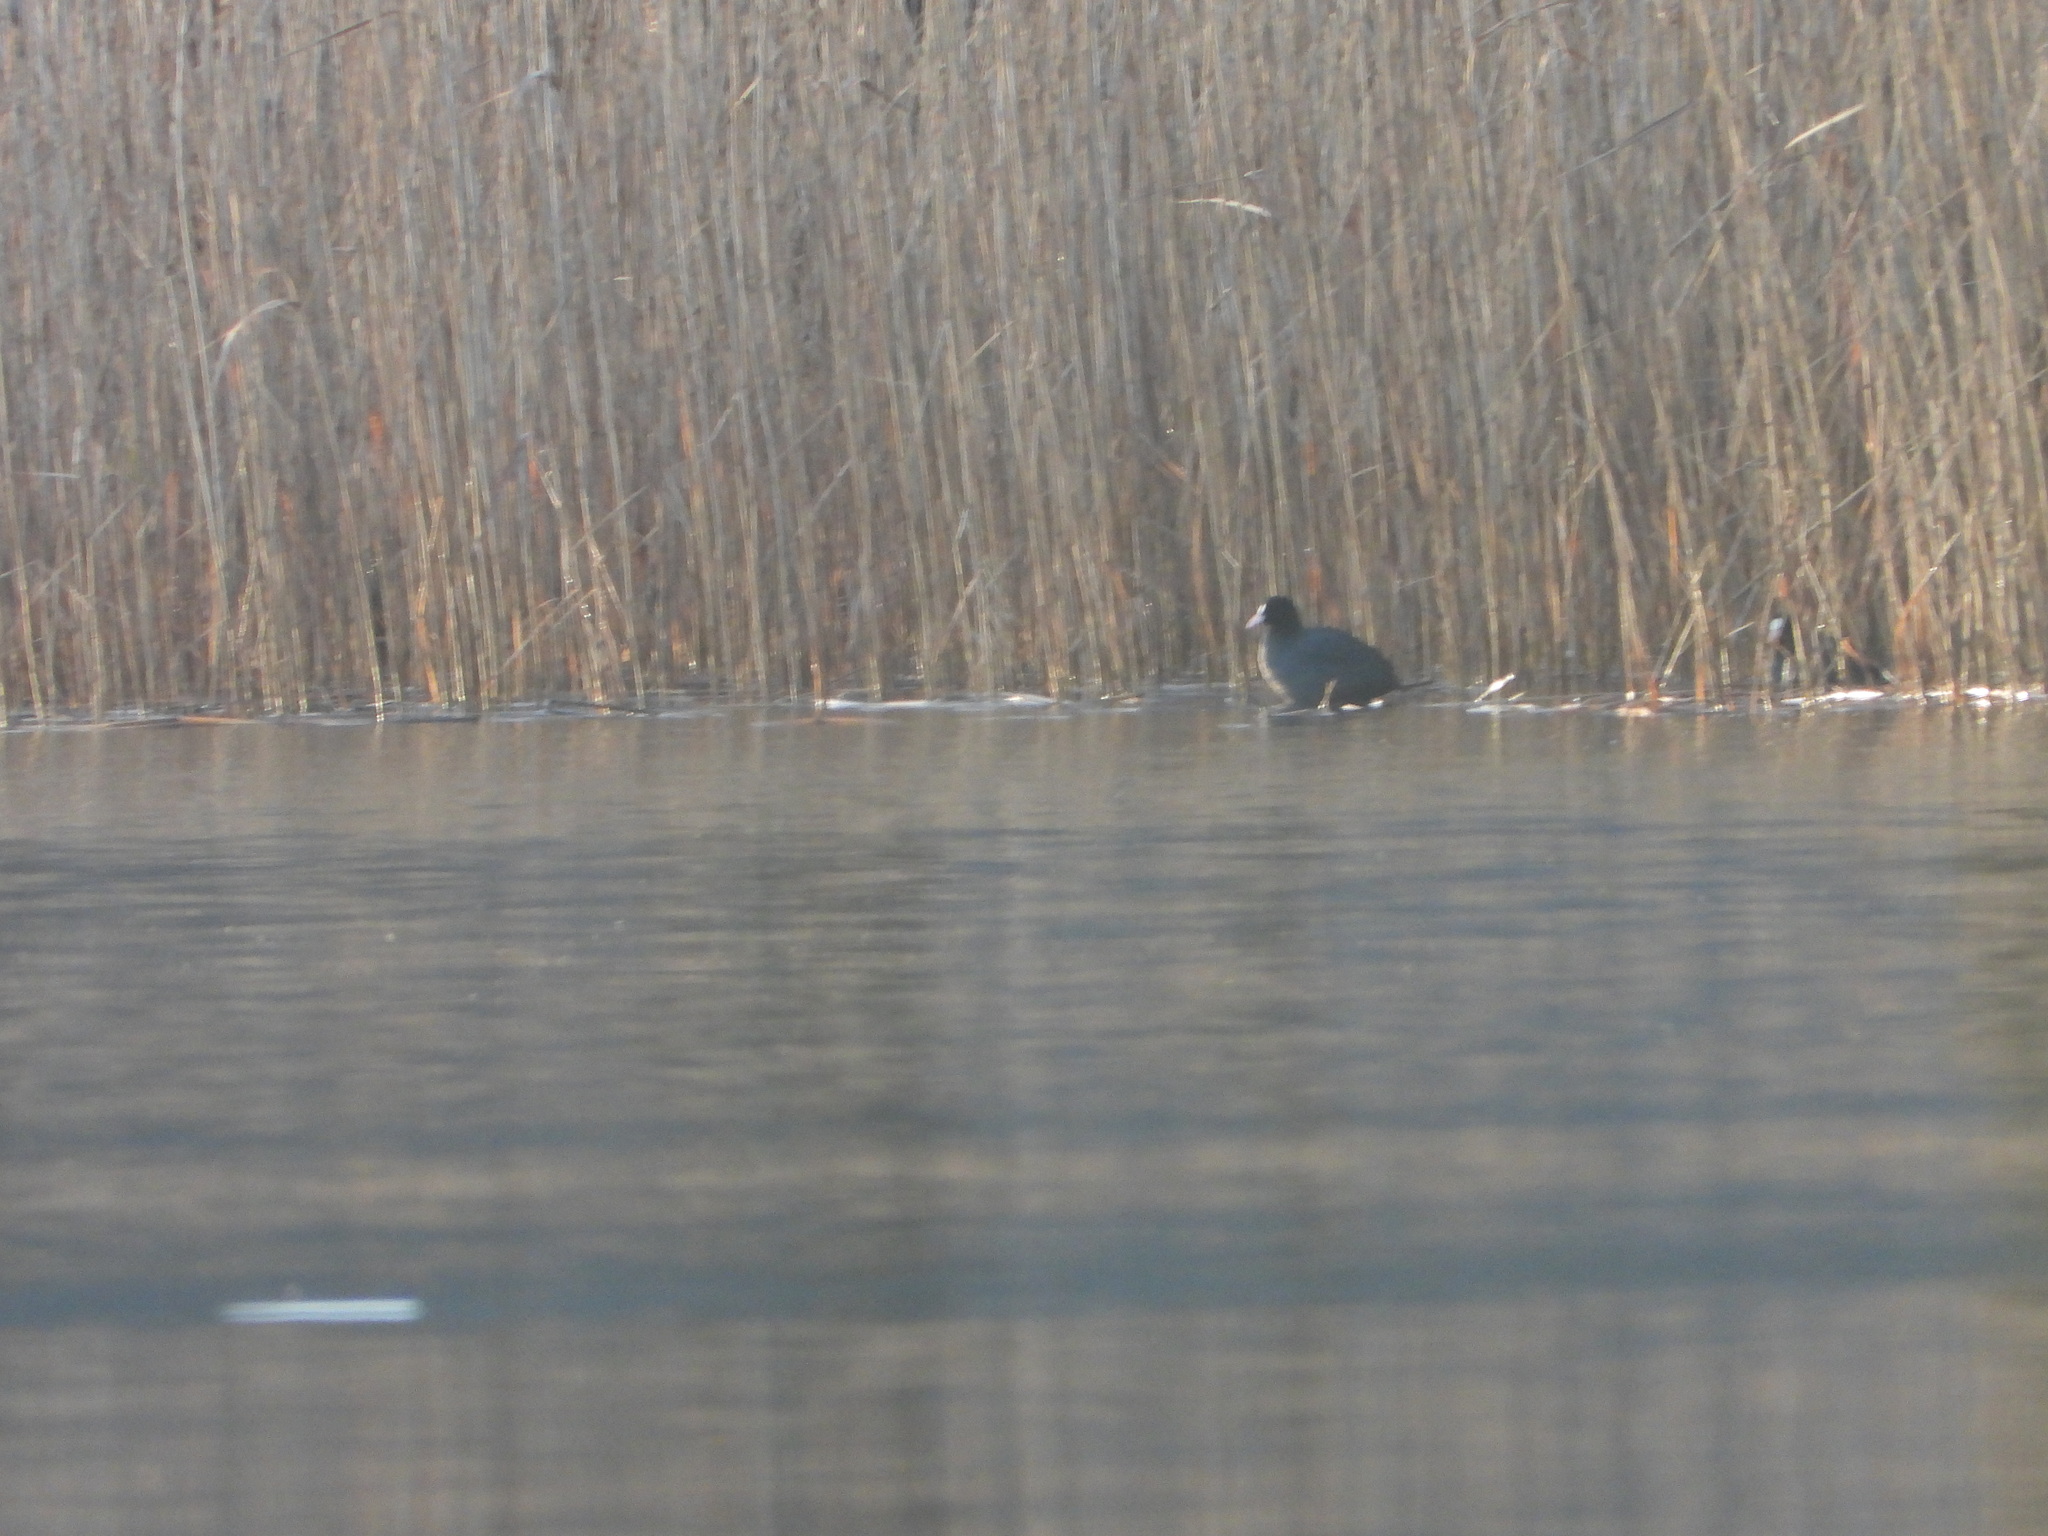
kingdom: Animalia
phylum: Chordata
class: Aves
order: Gruiformes
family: Rallidae
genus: Fulica
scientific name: Fulica atra
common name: Eurasian coot
